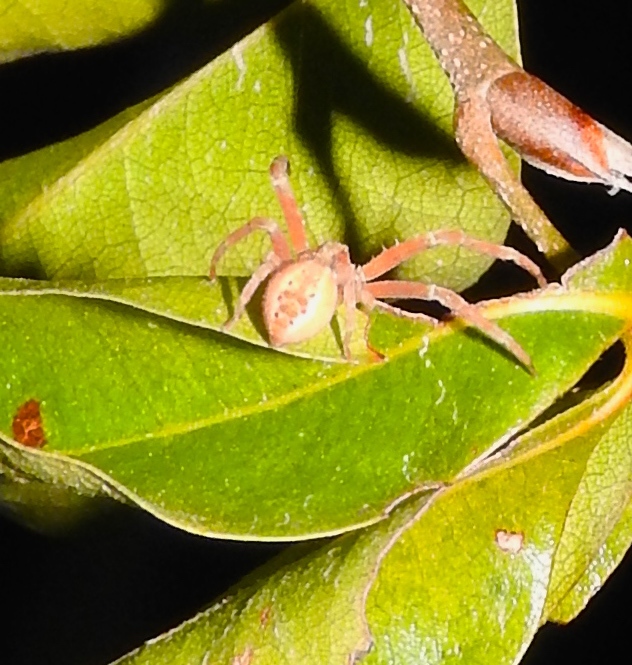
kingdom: Animalia
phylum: Arthropoda
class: Arachnida
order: Araneae
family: Thomisidae
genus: Isaloides
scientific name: Isaloides putus
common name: Crab spiders
